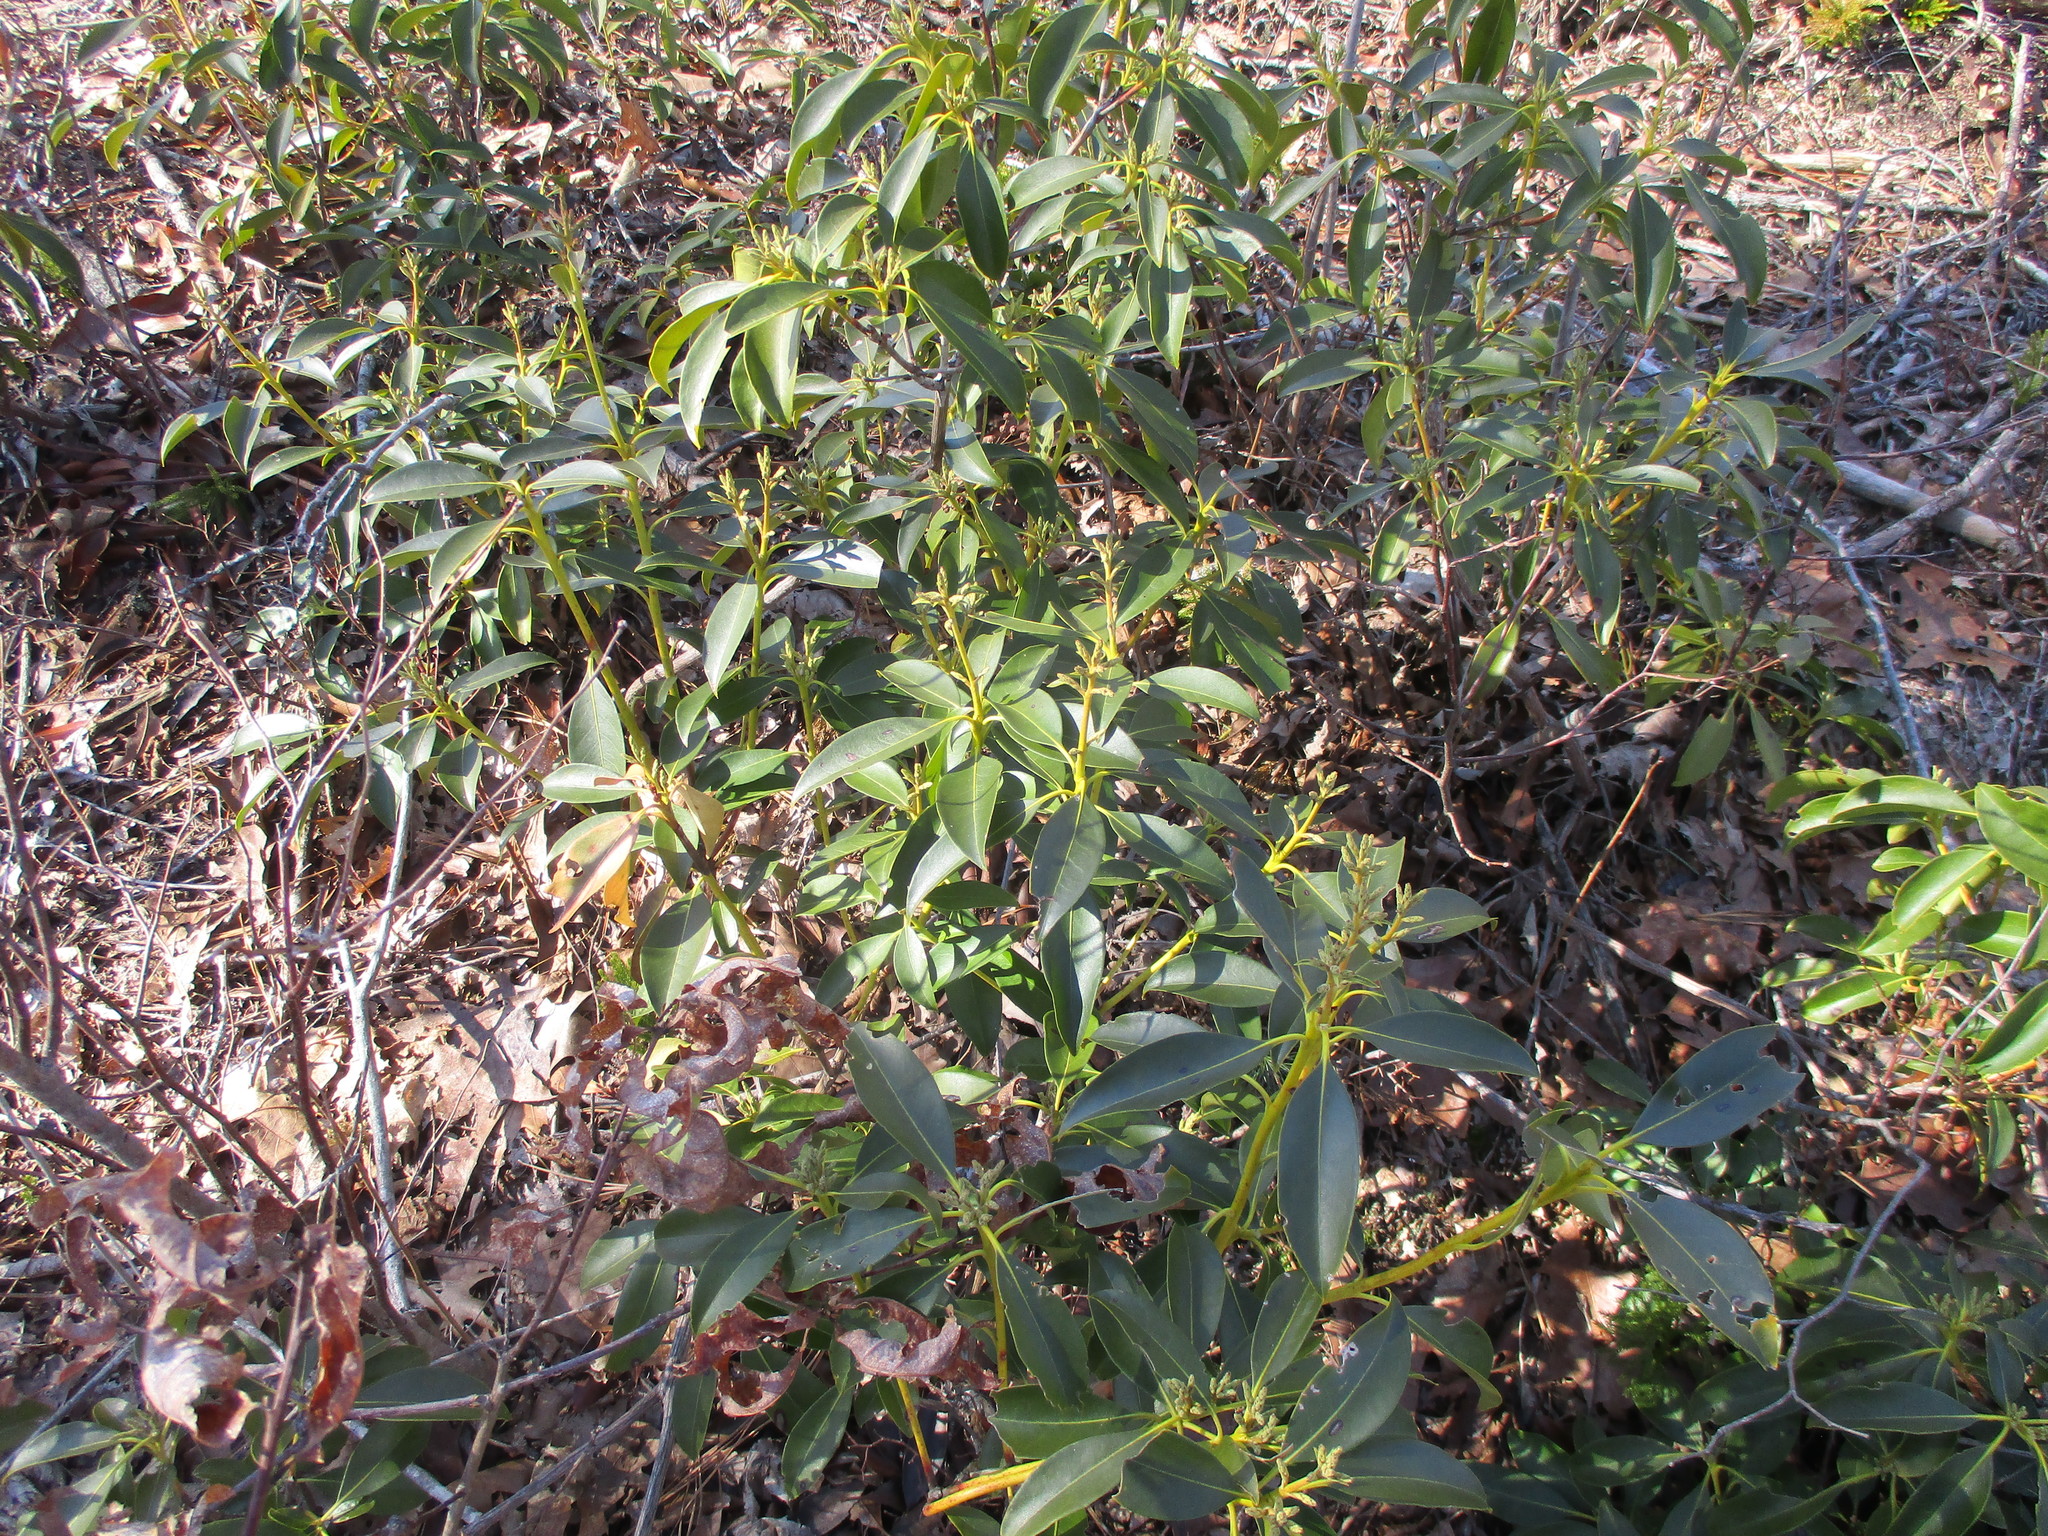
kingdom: Plantae
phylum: Tracheophyta
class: Magnoliopsida
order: Ericales
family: Ericaceae
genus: Kalmia
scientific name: Kalmia latifolia
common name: Mountain-laurel
